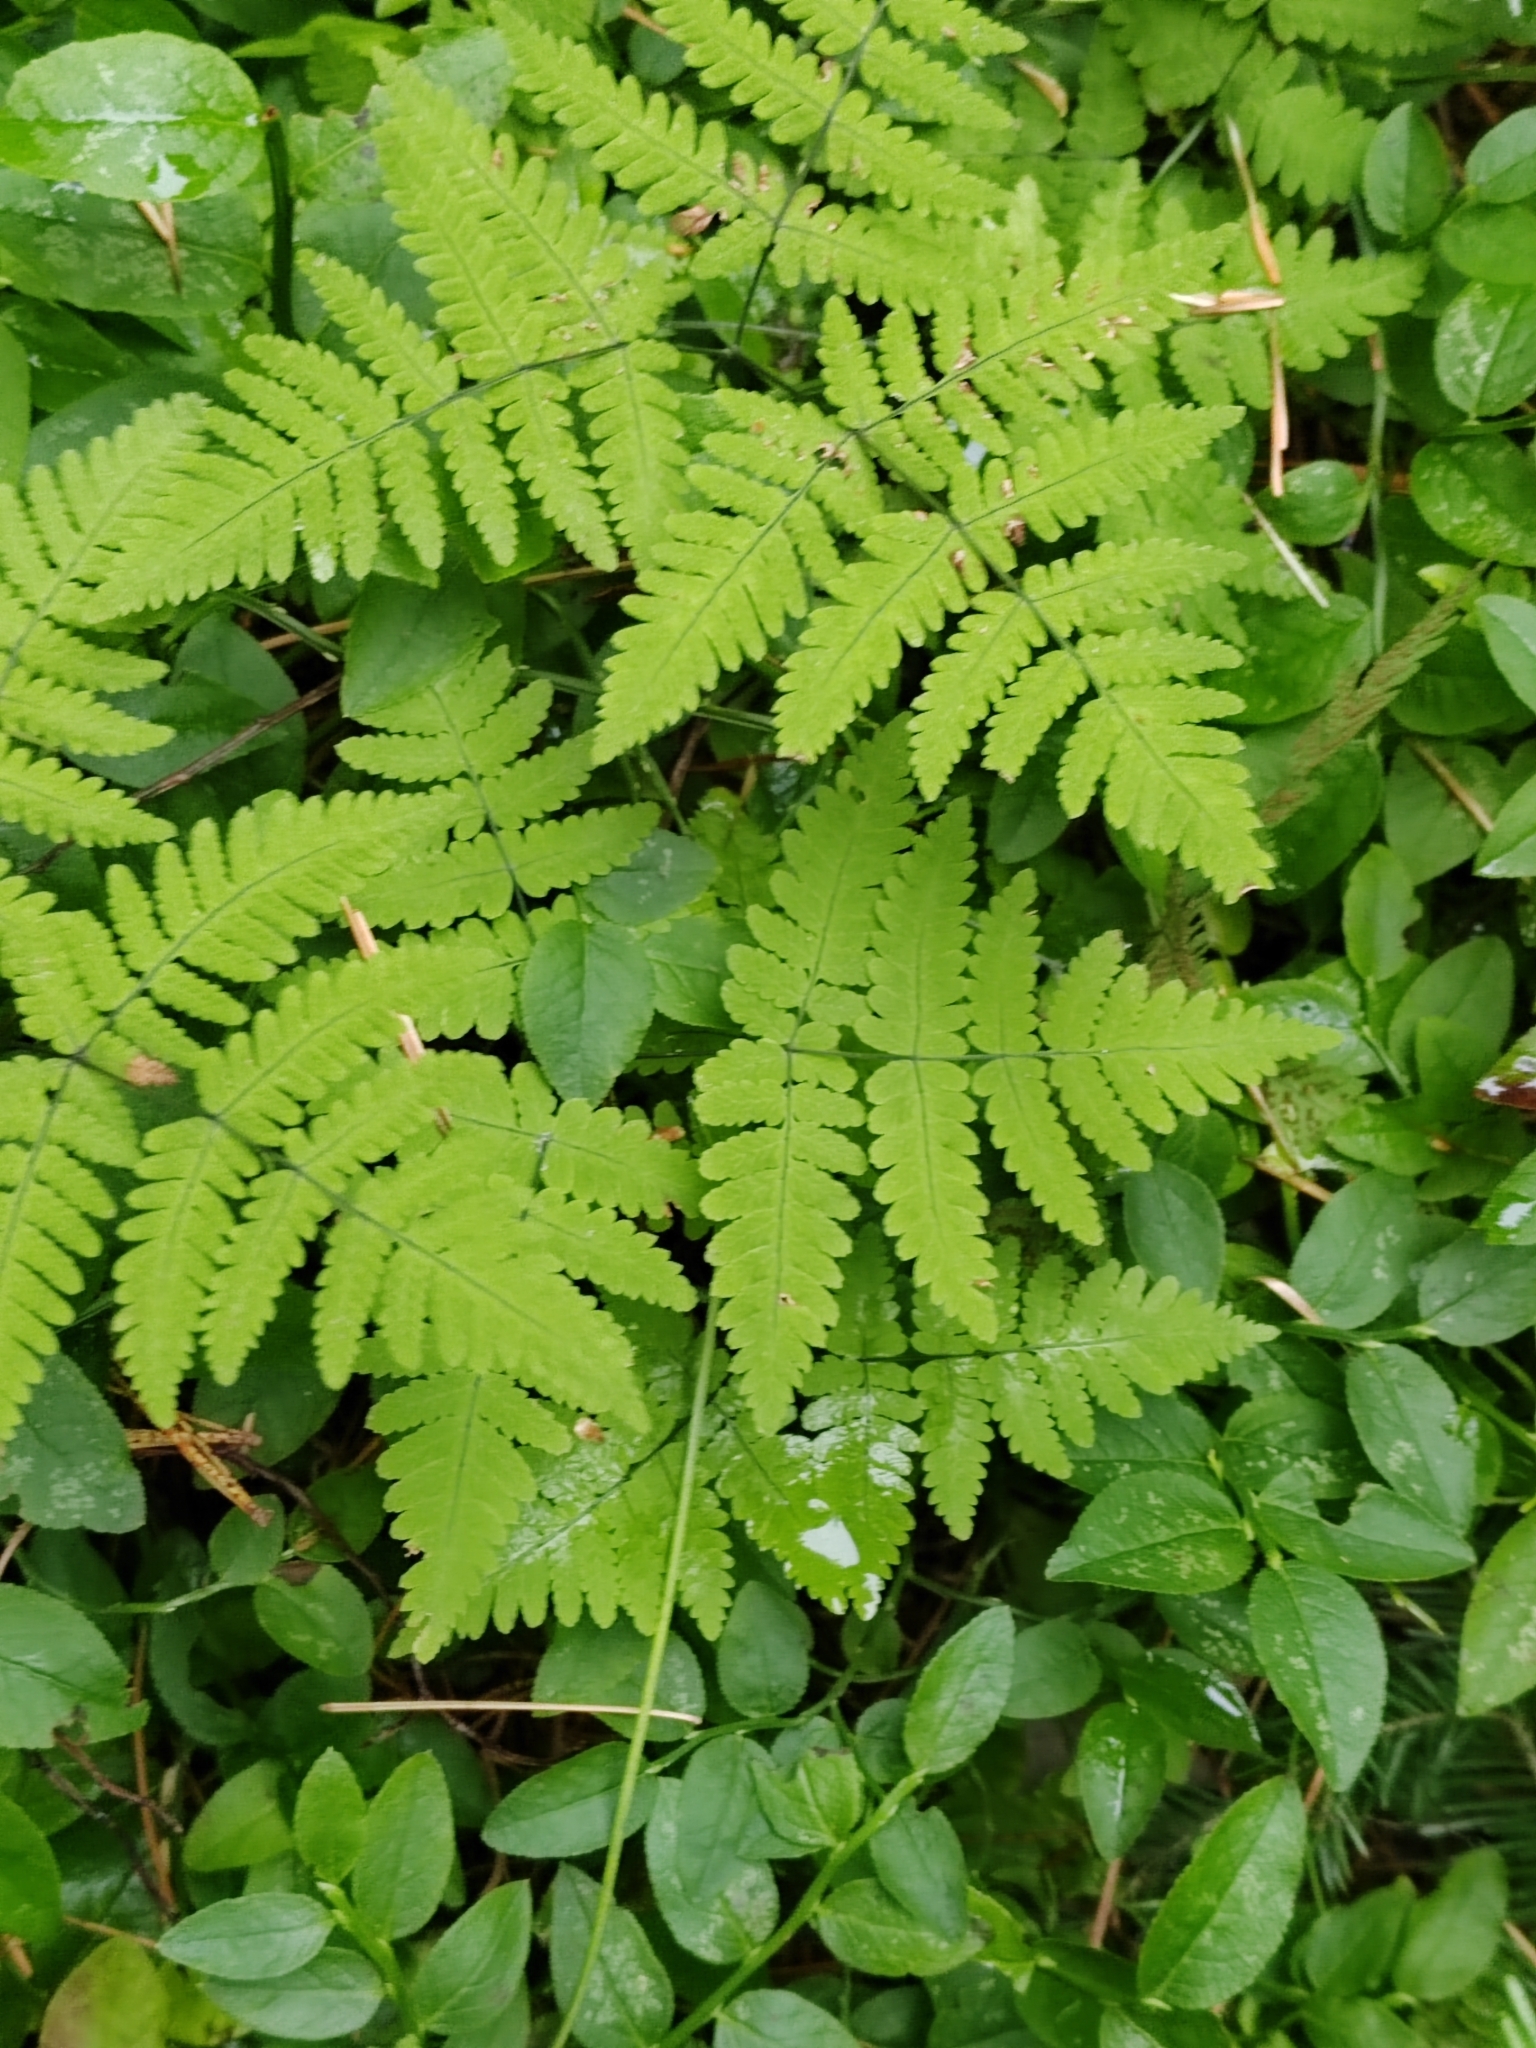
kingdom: Plantae
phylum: Tracheophyta
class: Polypodiopsida
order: Polypodiales
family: Cystopteridaceae
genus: Gymnocarpium
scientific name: Gymnocarpium dryopteris
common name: Oak fern
